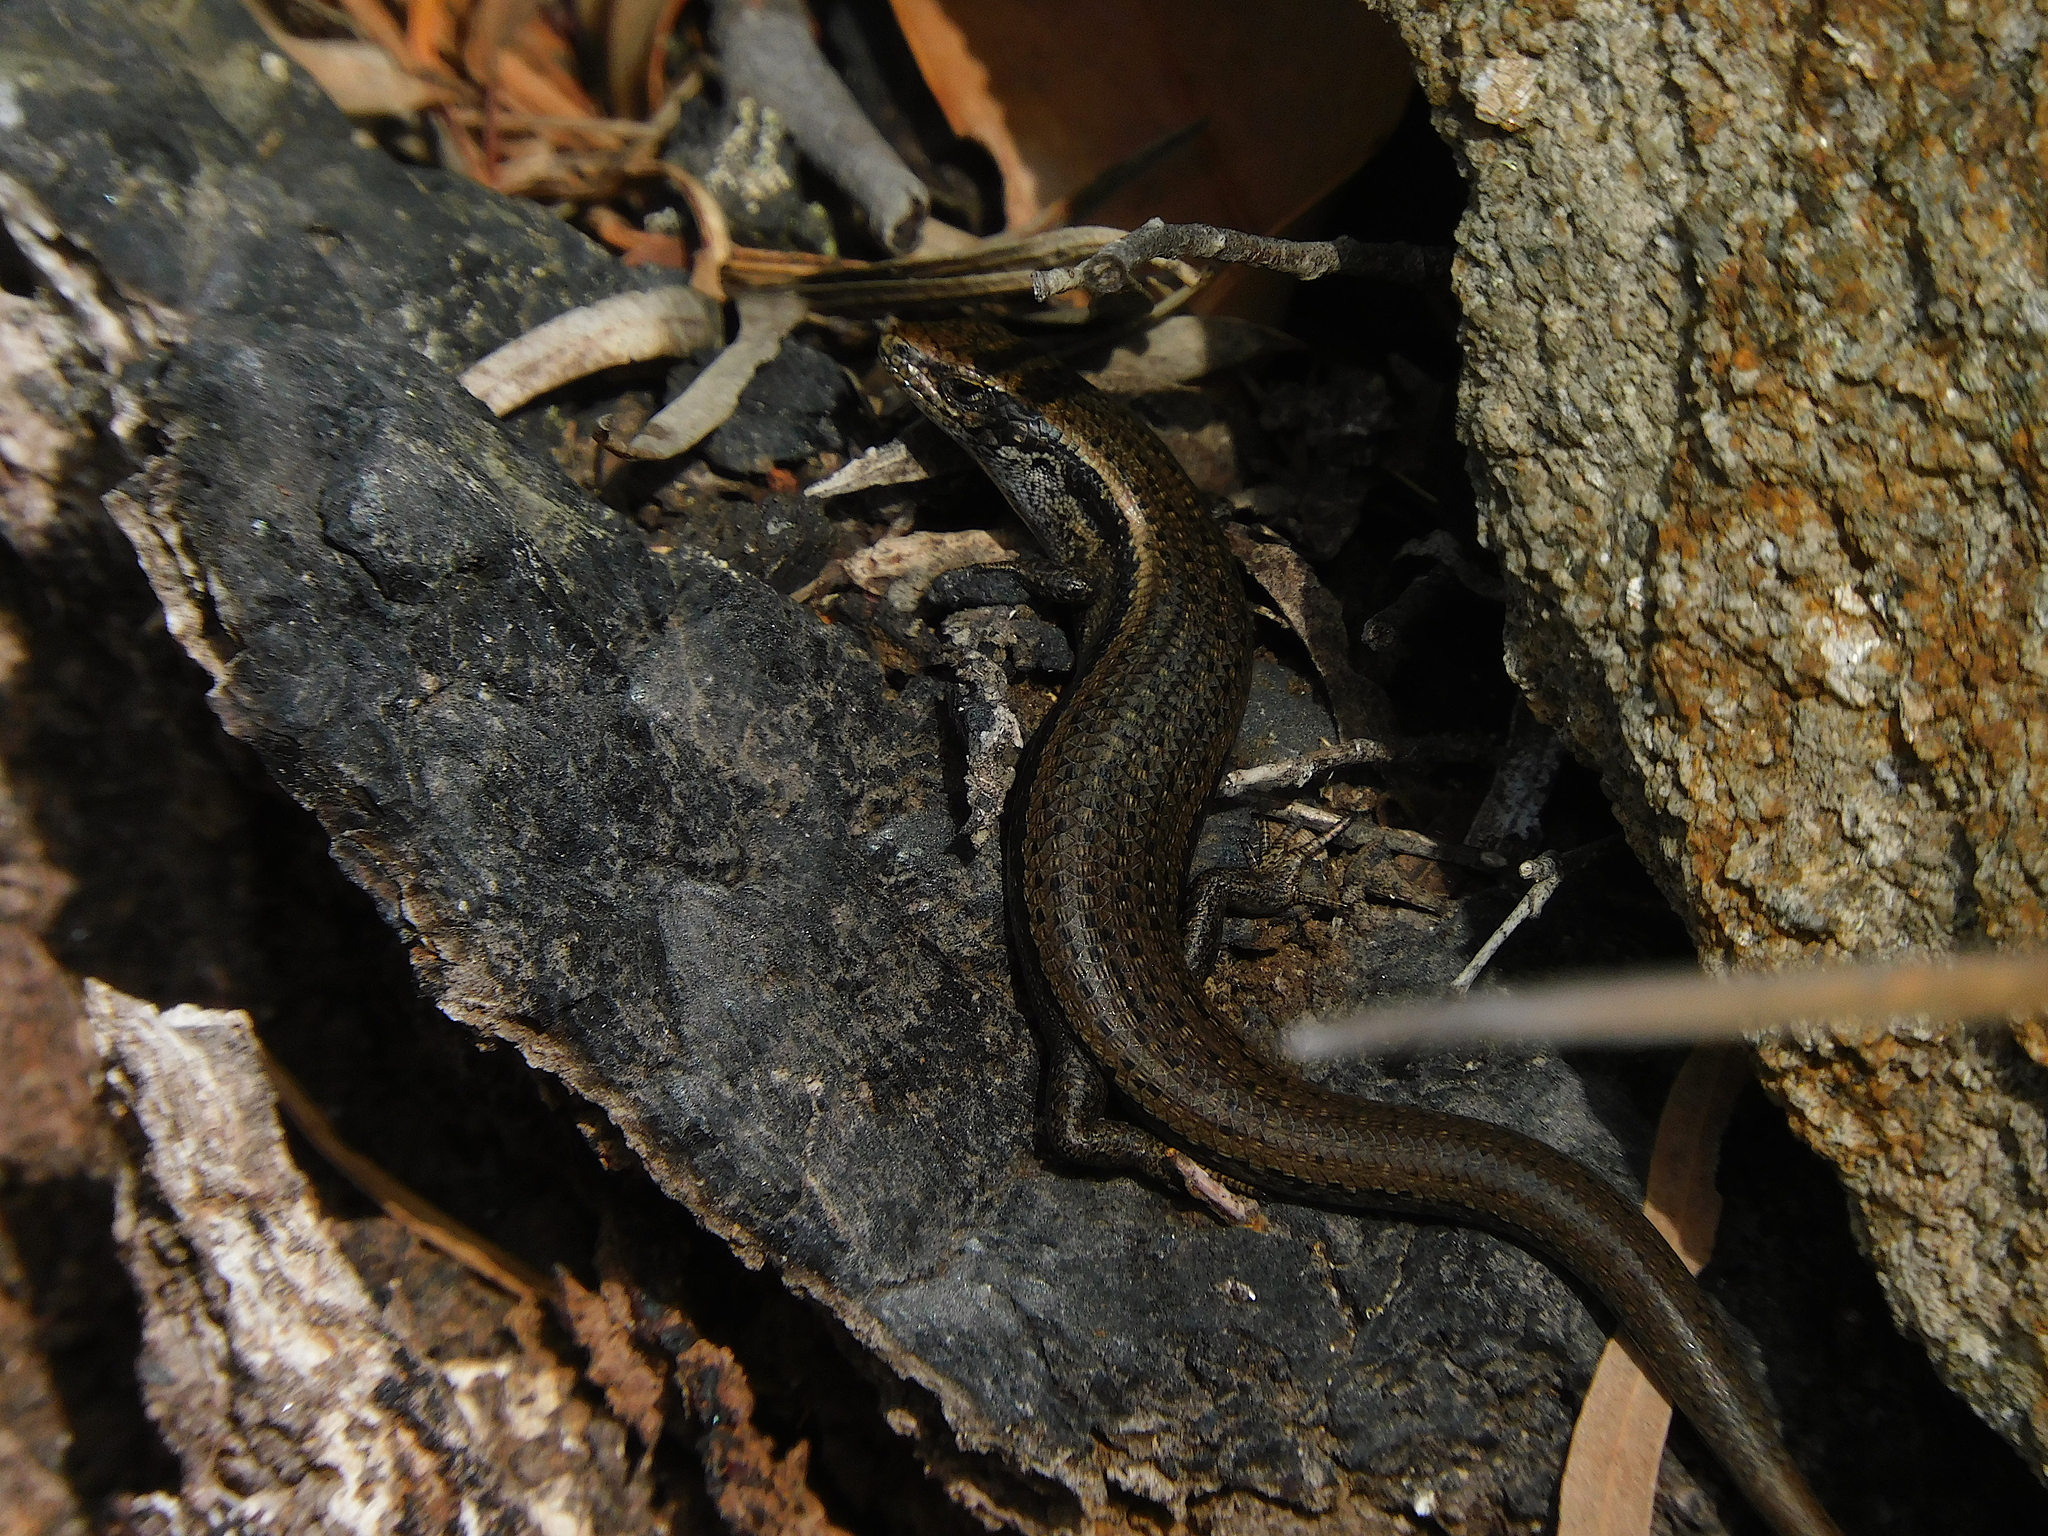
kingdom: Animalia
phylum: Chordata
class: Squamata
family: Scincidae
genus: Carinascincus
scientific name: Carinascincus metallicus
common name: Metallic cool-skink
